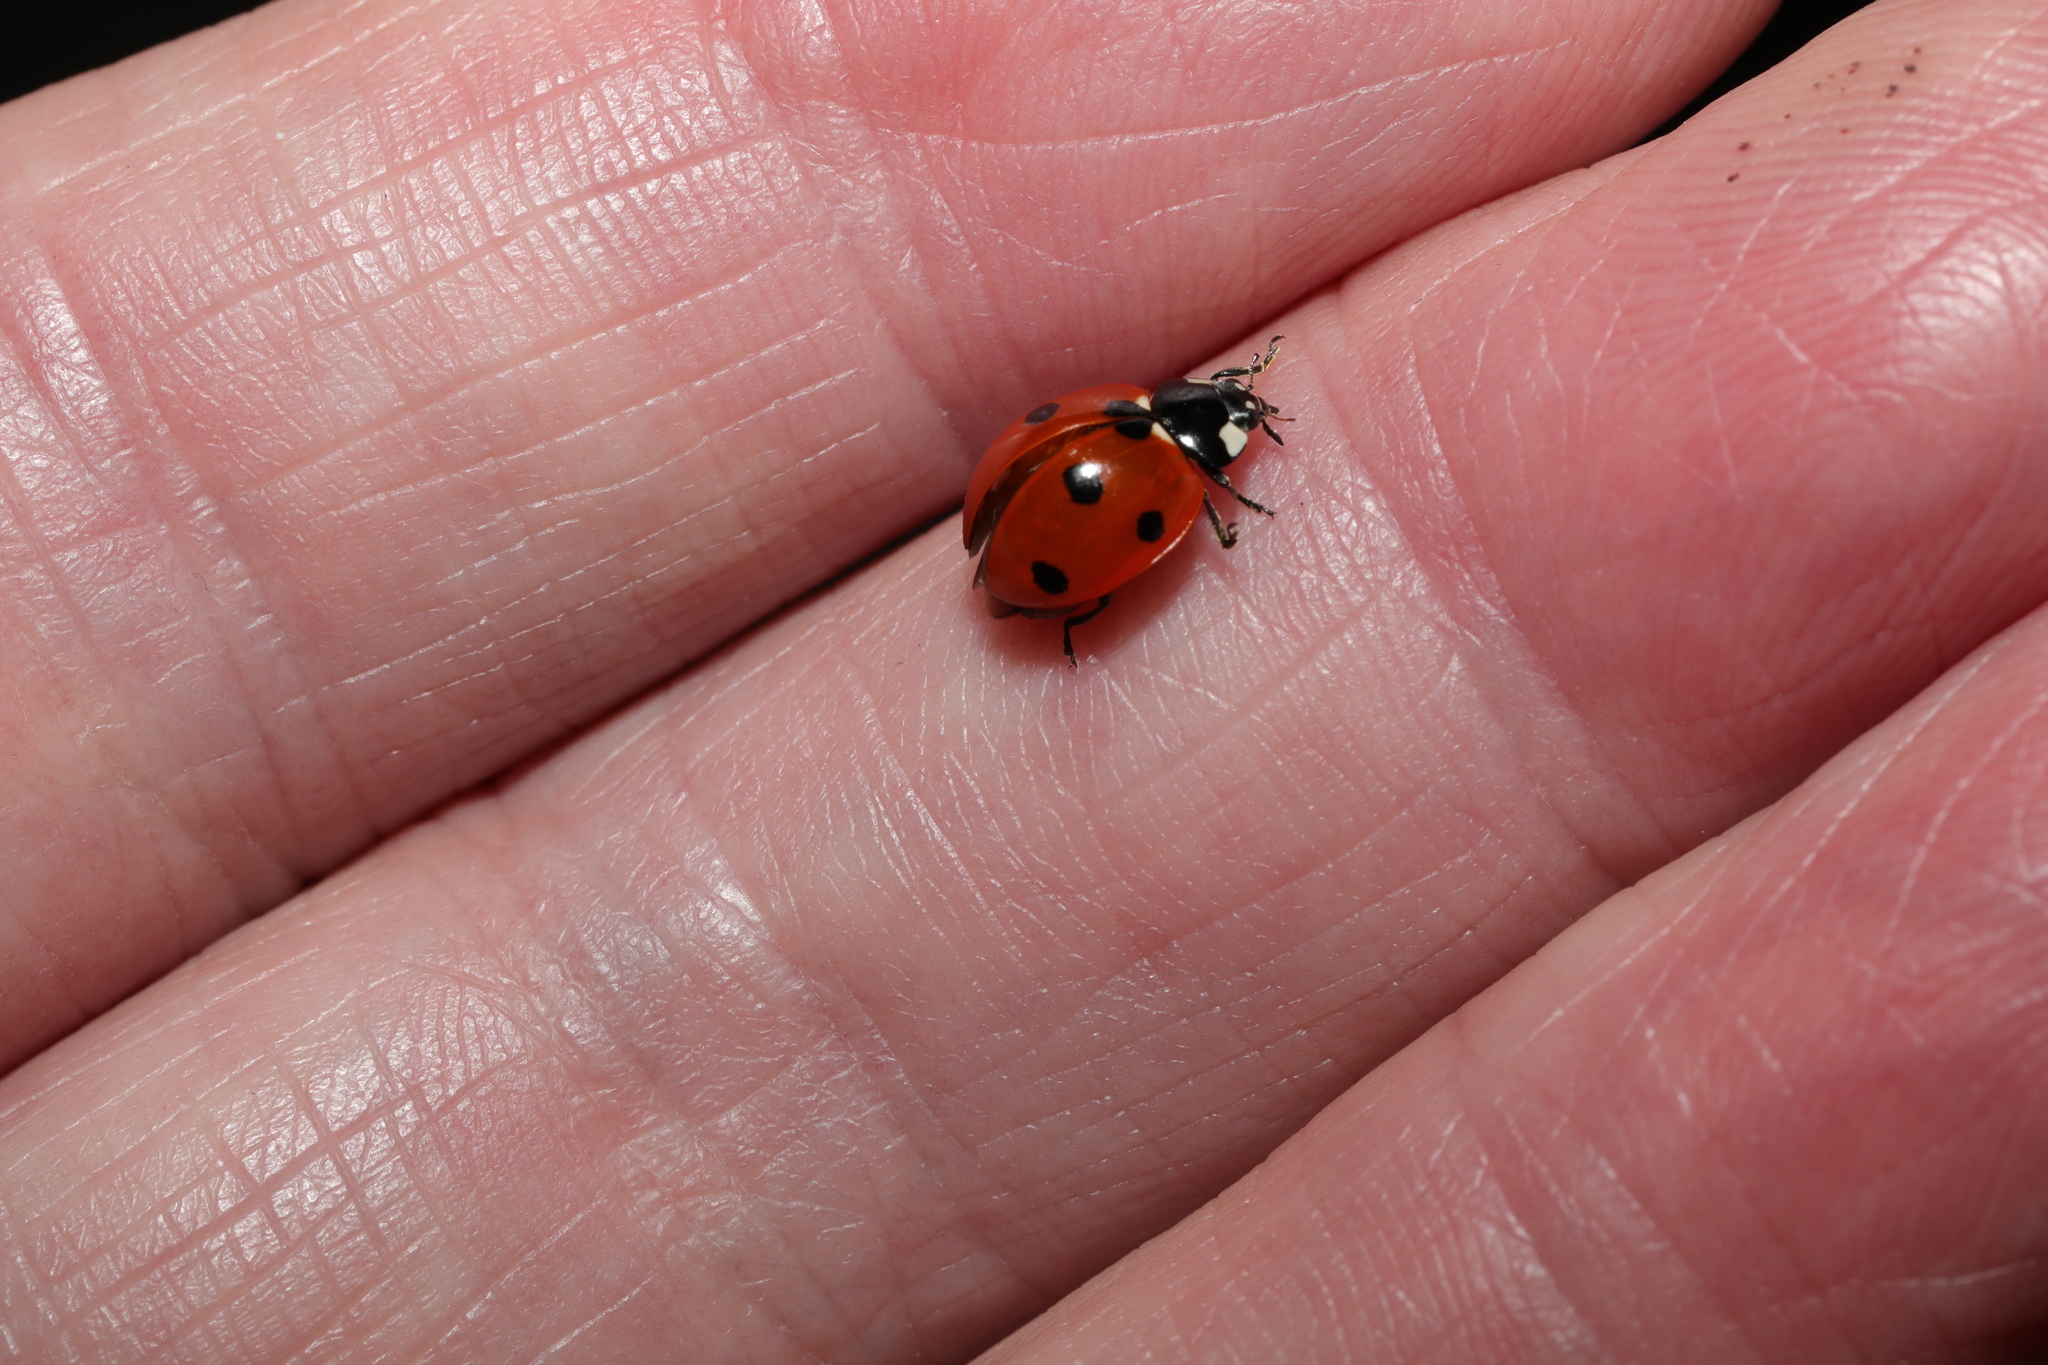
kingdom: Animalia
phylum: Arthropoda
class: Insecta
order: Coleoptera
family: Coccinellidae
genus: Coccinella
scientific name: Coccinella septempunctata
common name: Sevenspotted lady beetle
